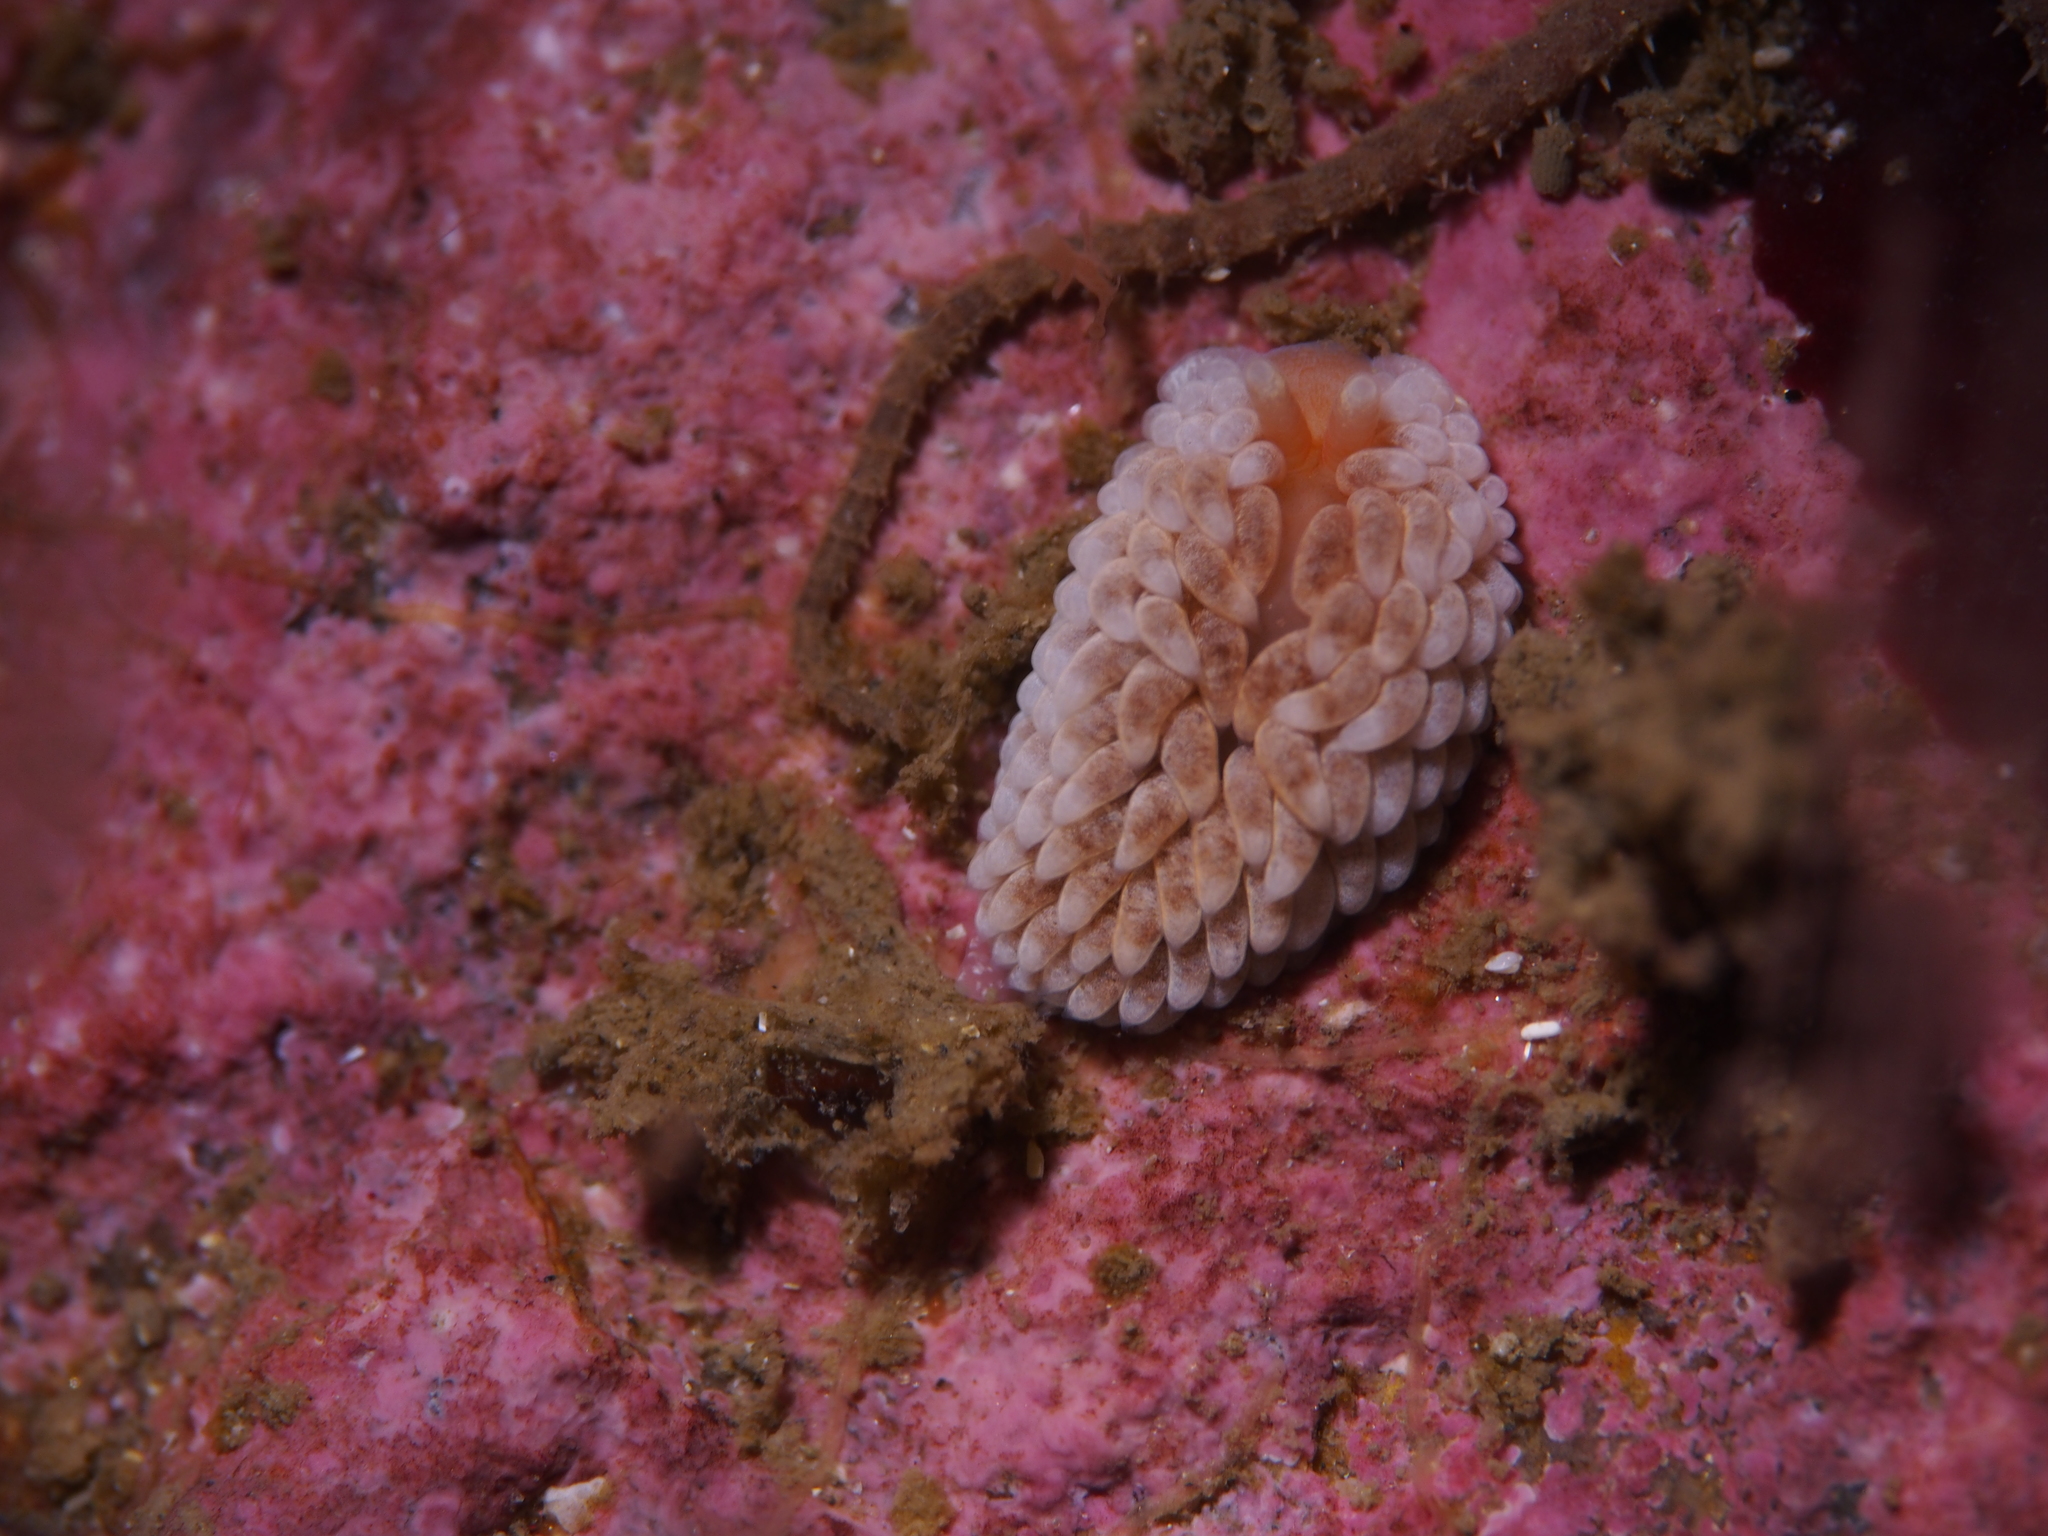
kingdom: Animalia
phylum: Mollusca
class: Gastropoda
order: Nudibranchia
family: Aeolidiidae
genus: Aeolidiella
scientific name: Aeolidiella glauca
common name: Orange-brown aeolid
